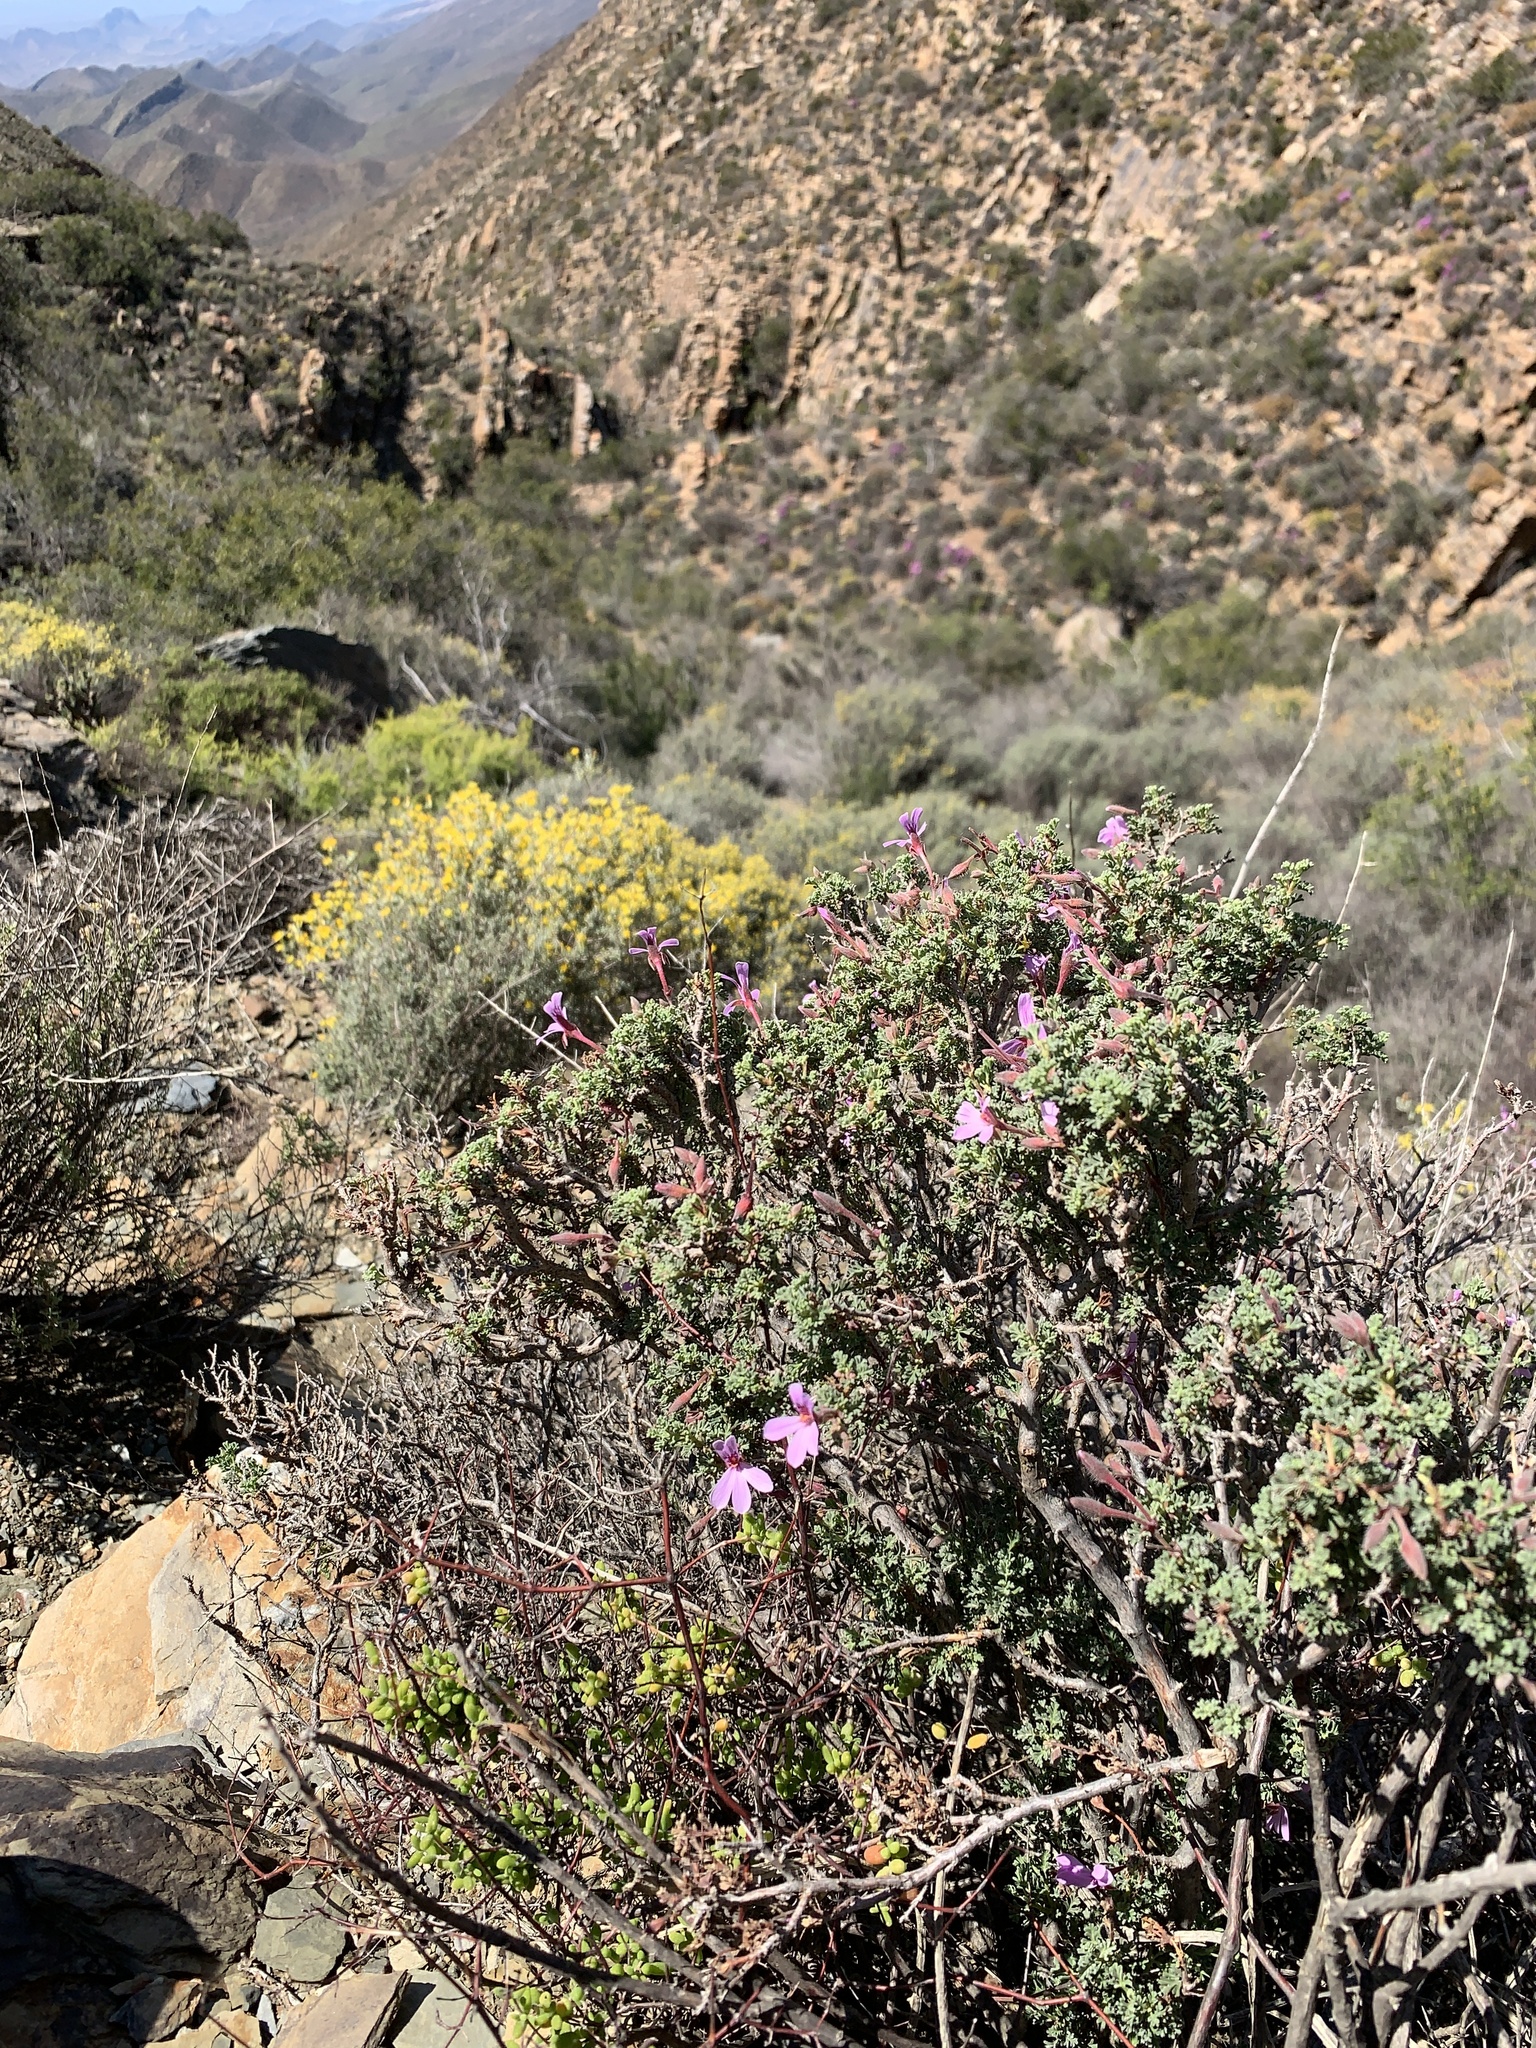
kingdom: Plantae
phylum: Tracheophyta
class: Magnoliopsida
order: Geraniales
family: Geraniaceae
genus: Pelargonium
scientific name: Pelargonium abrotanifolium
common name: Southernwood geranium
